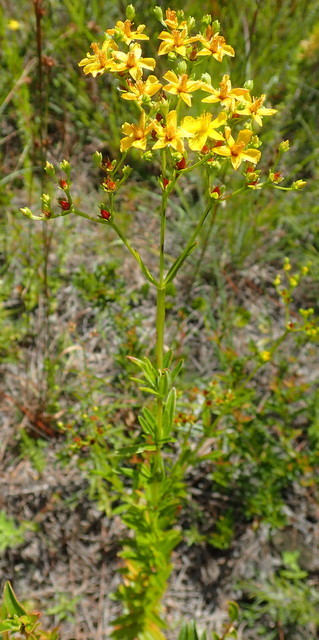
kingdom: Plantae
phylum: Tracheophyta
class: Magnoliopsida
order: Malpighiales
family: Hypericaceae
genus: Hypericum
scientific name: Hypericum cistifolium
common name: Round-pod st. john's-wort
